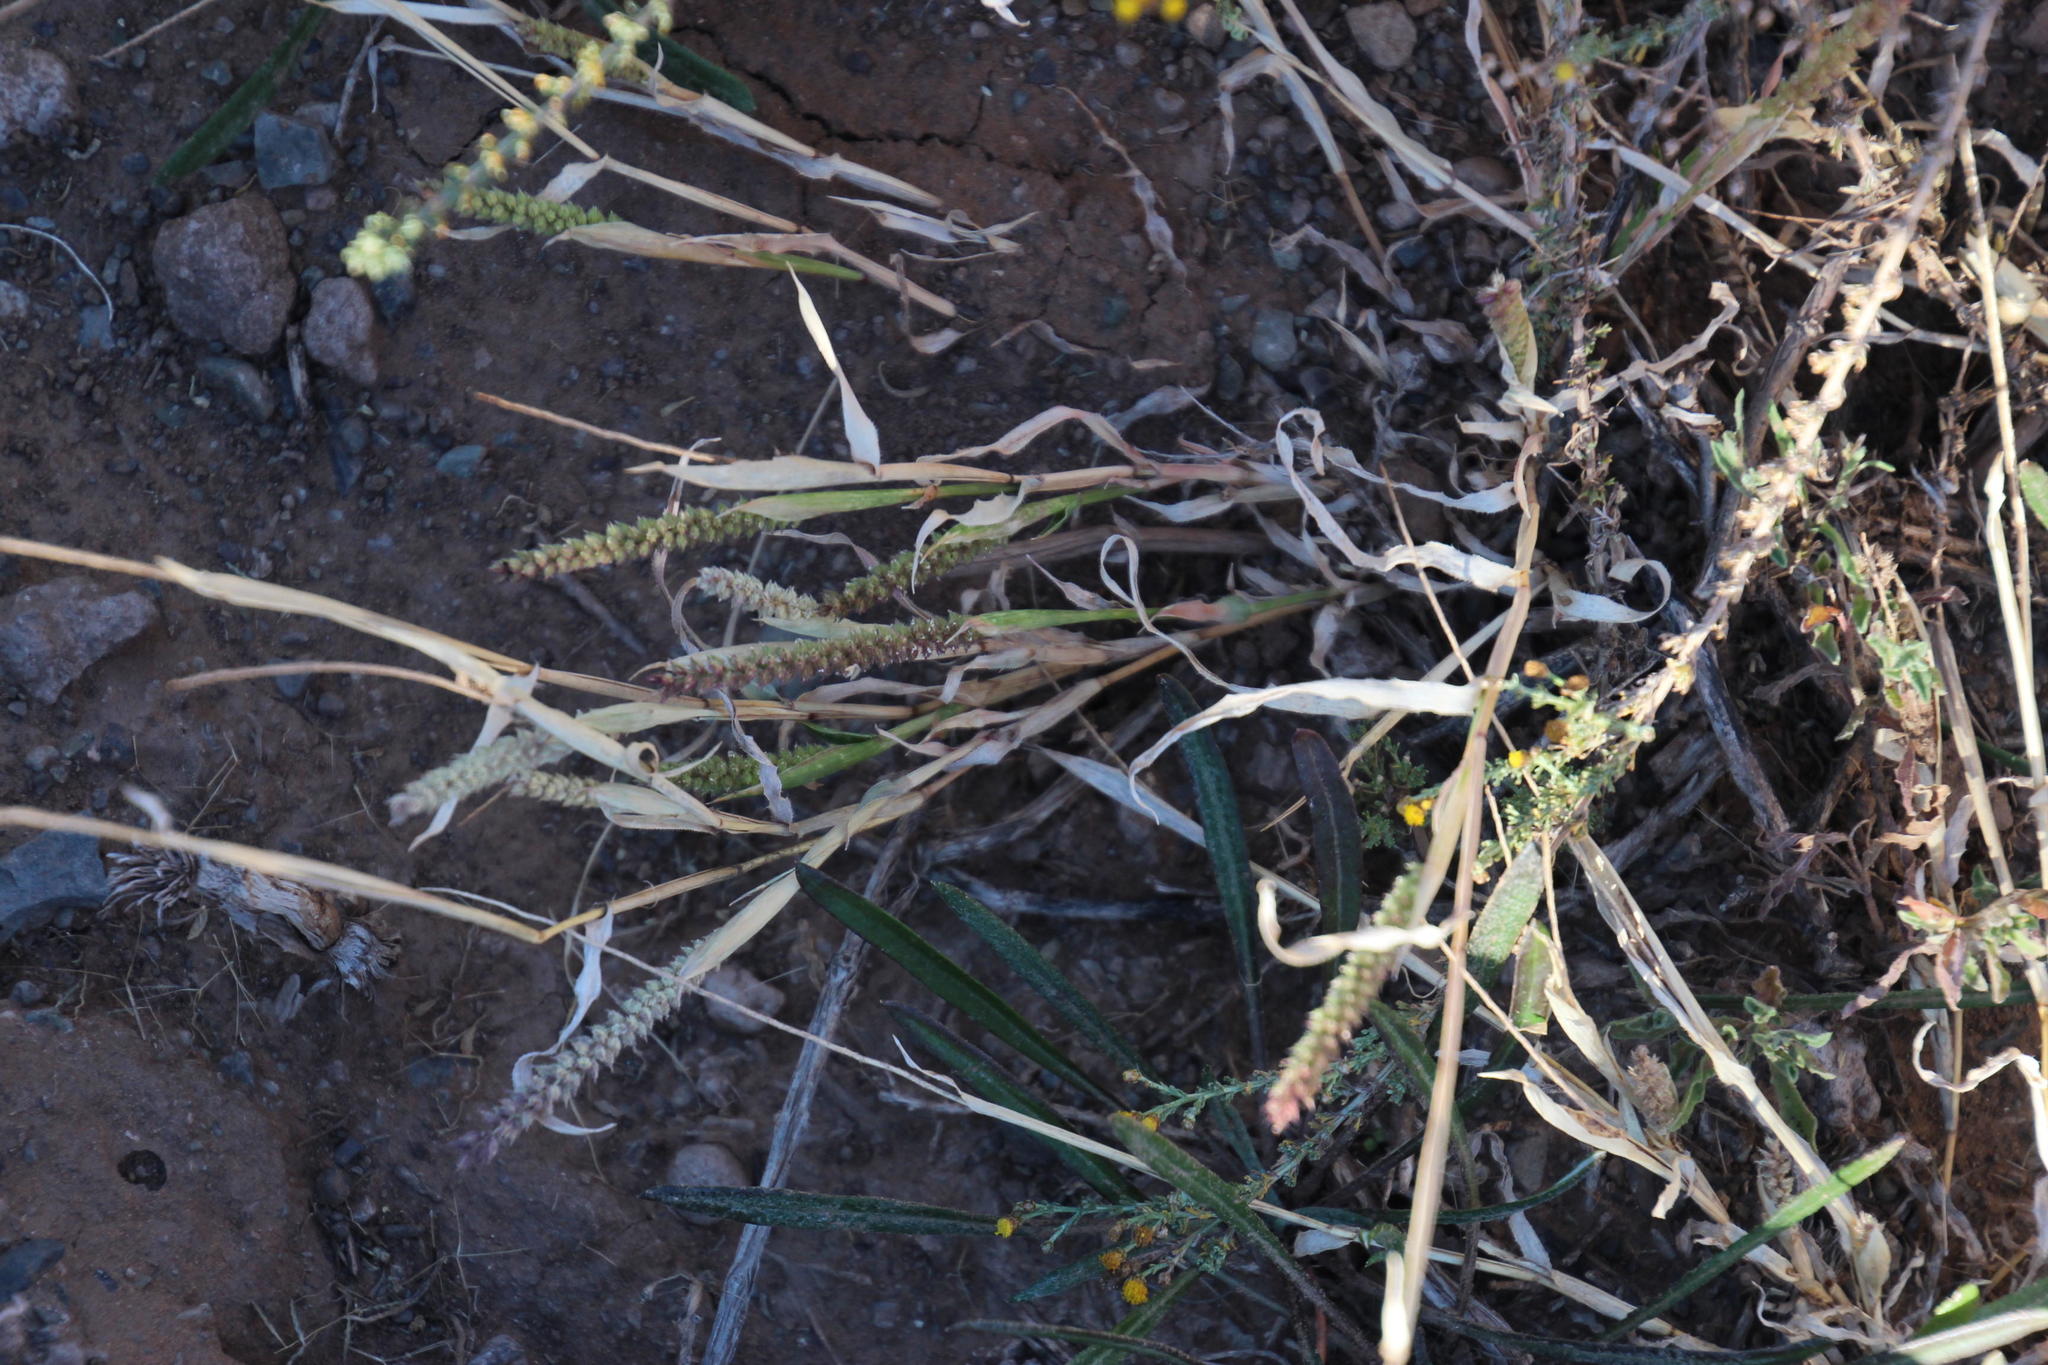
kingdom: Plantae
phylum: Tracheophyta
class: Liliopsida
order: Poales
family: Poaceae
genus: Tragus
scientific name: Tragus berteronianus
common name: African bur-grass
